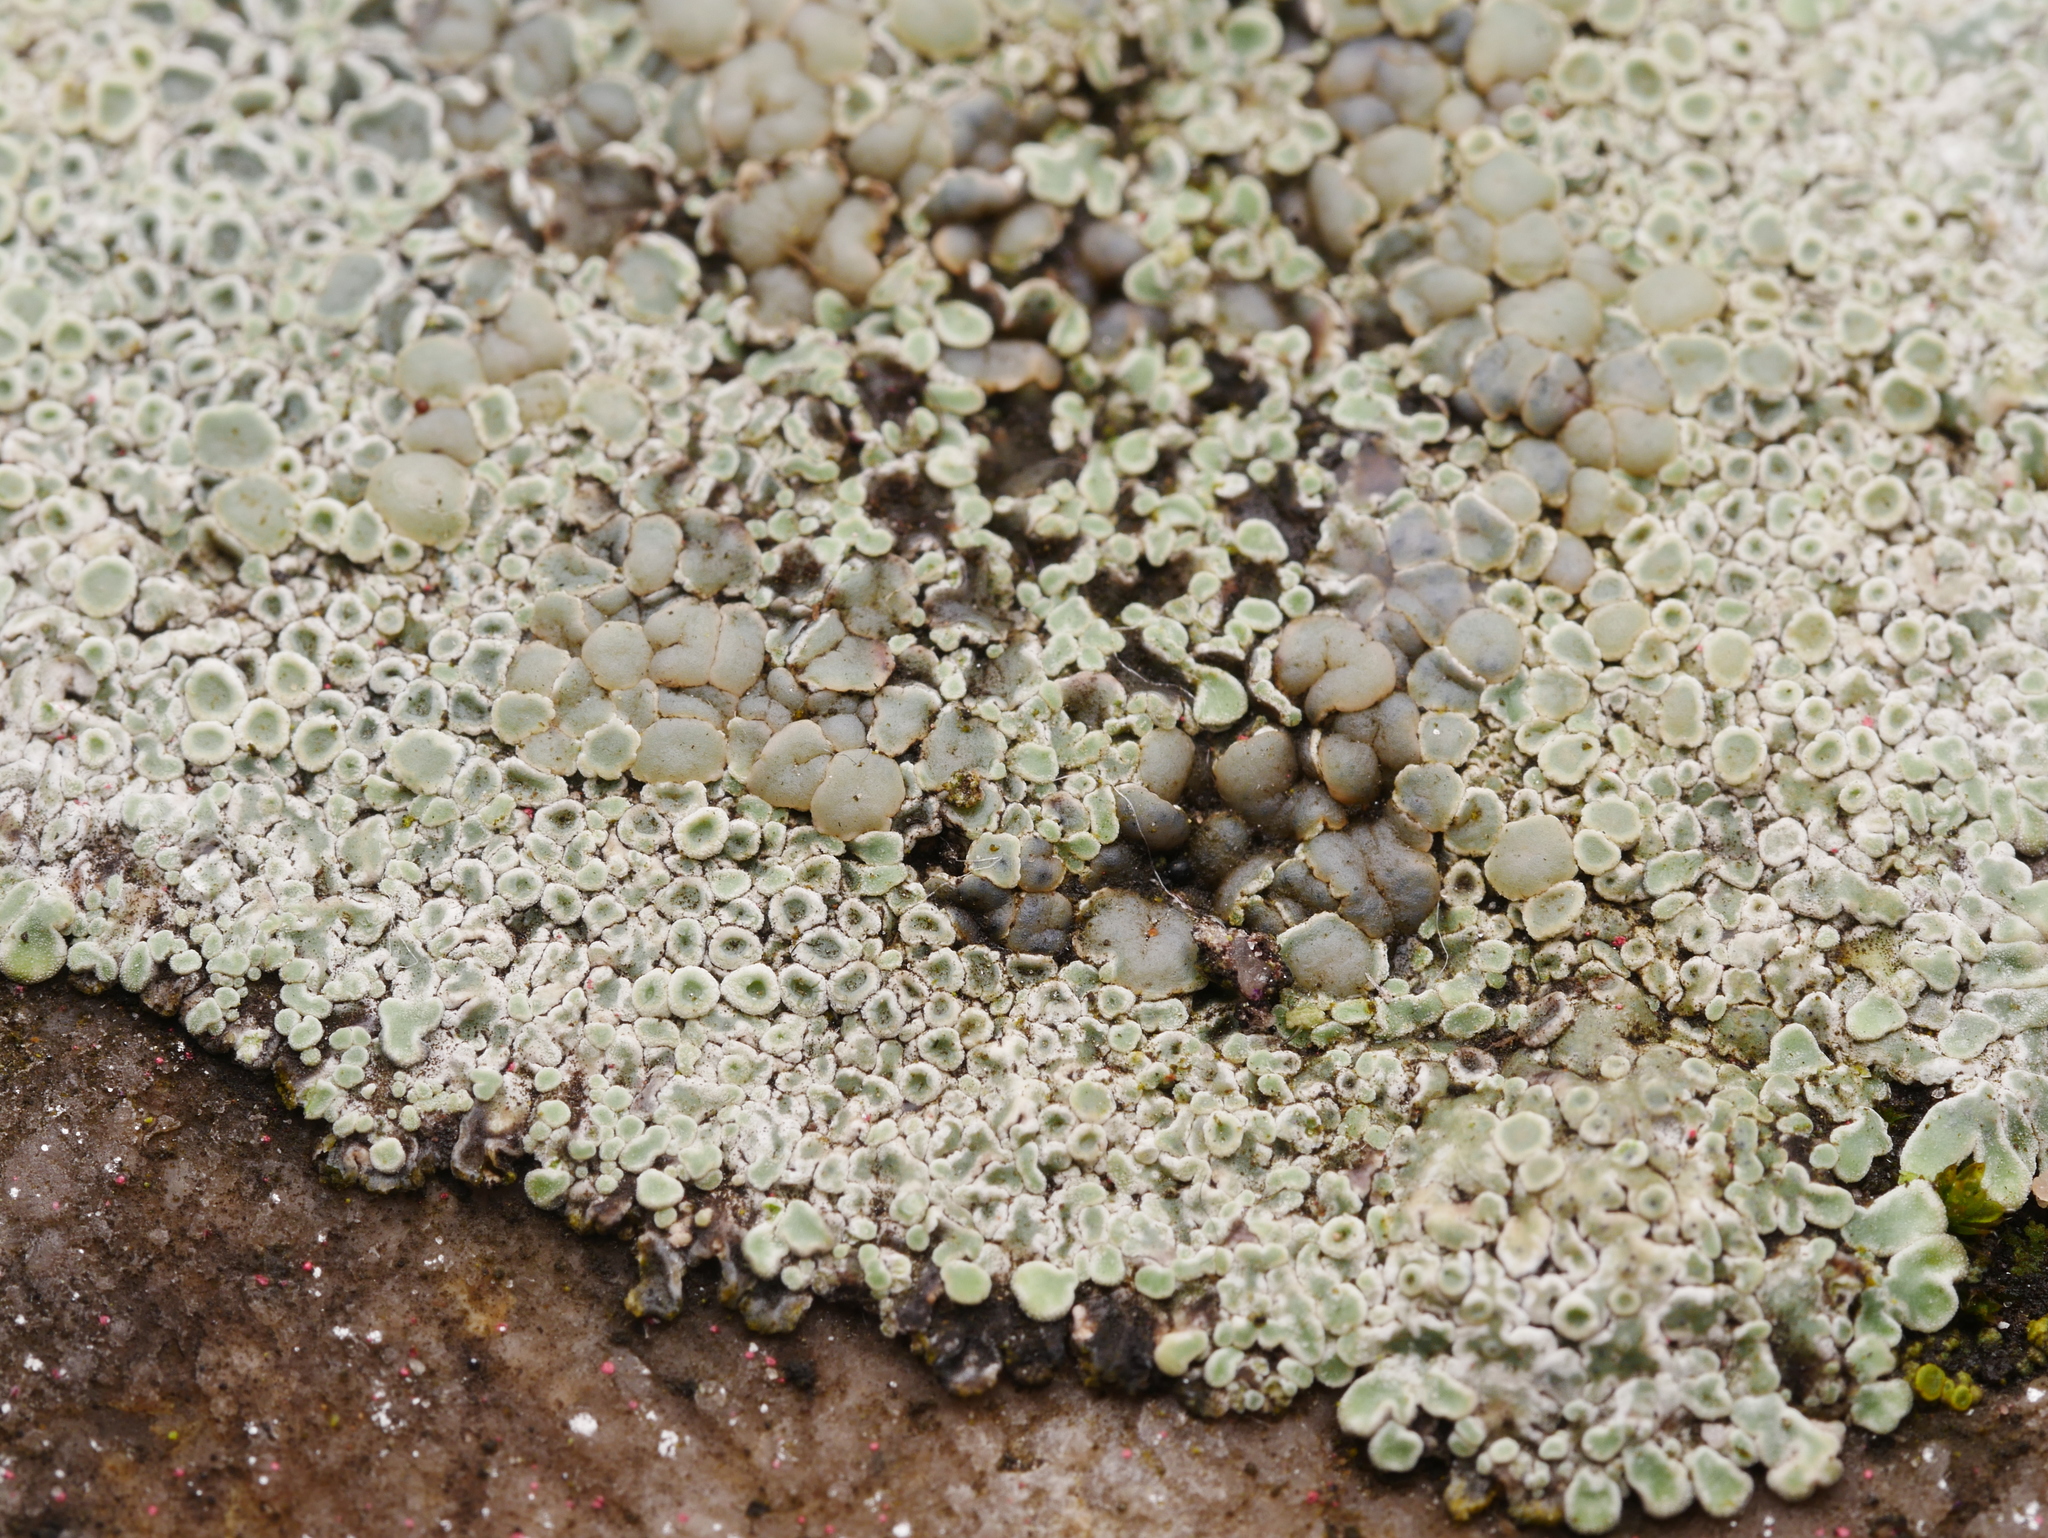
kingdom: Fungi
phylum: Ascomycota
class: Lecanoromycetes
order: Lecanorales
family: Lecanoraceae
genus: Protoparmeliopsis
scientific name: Protoparmeliopsis muralis
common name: Stonewall rim lichen
